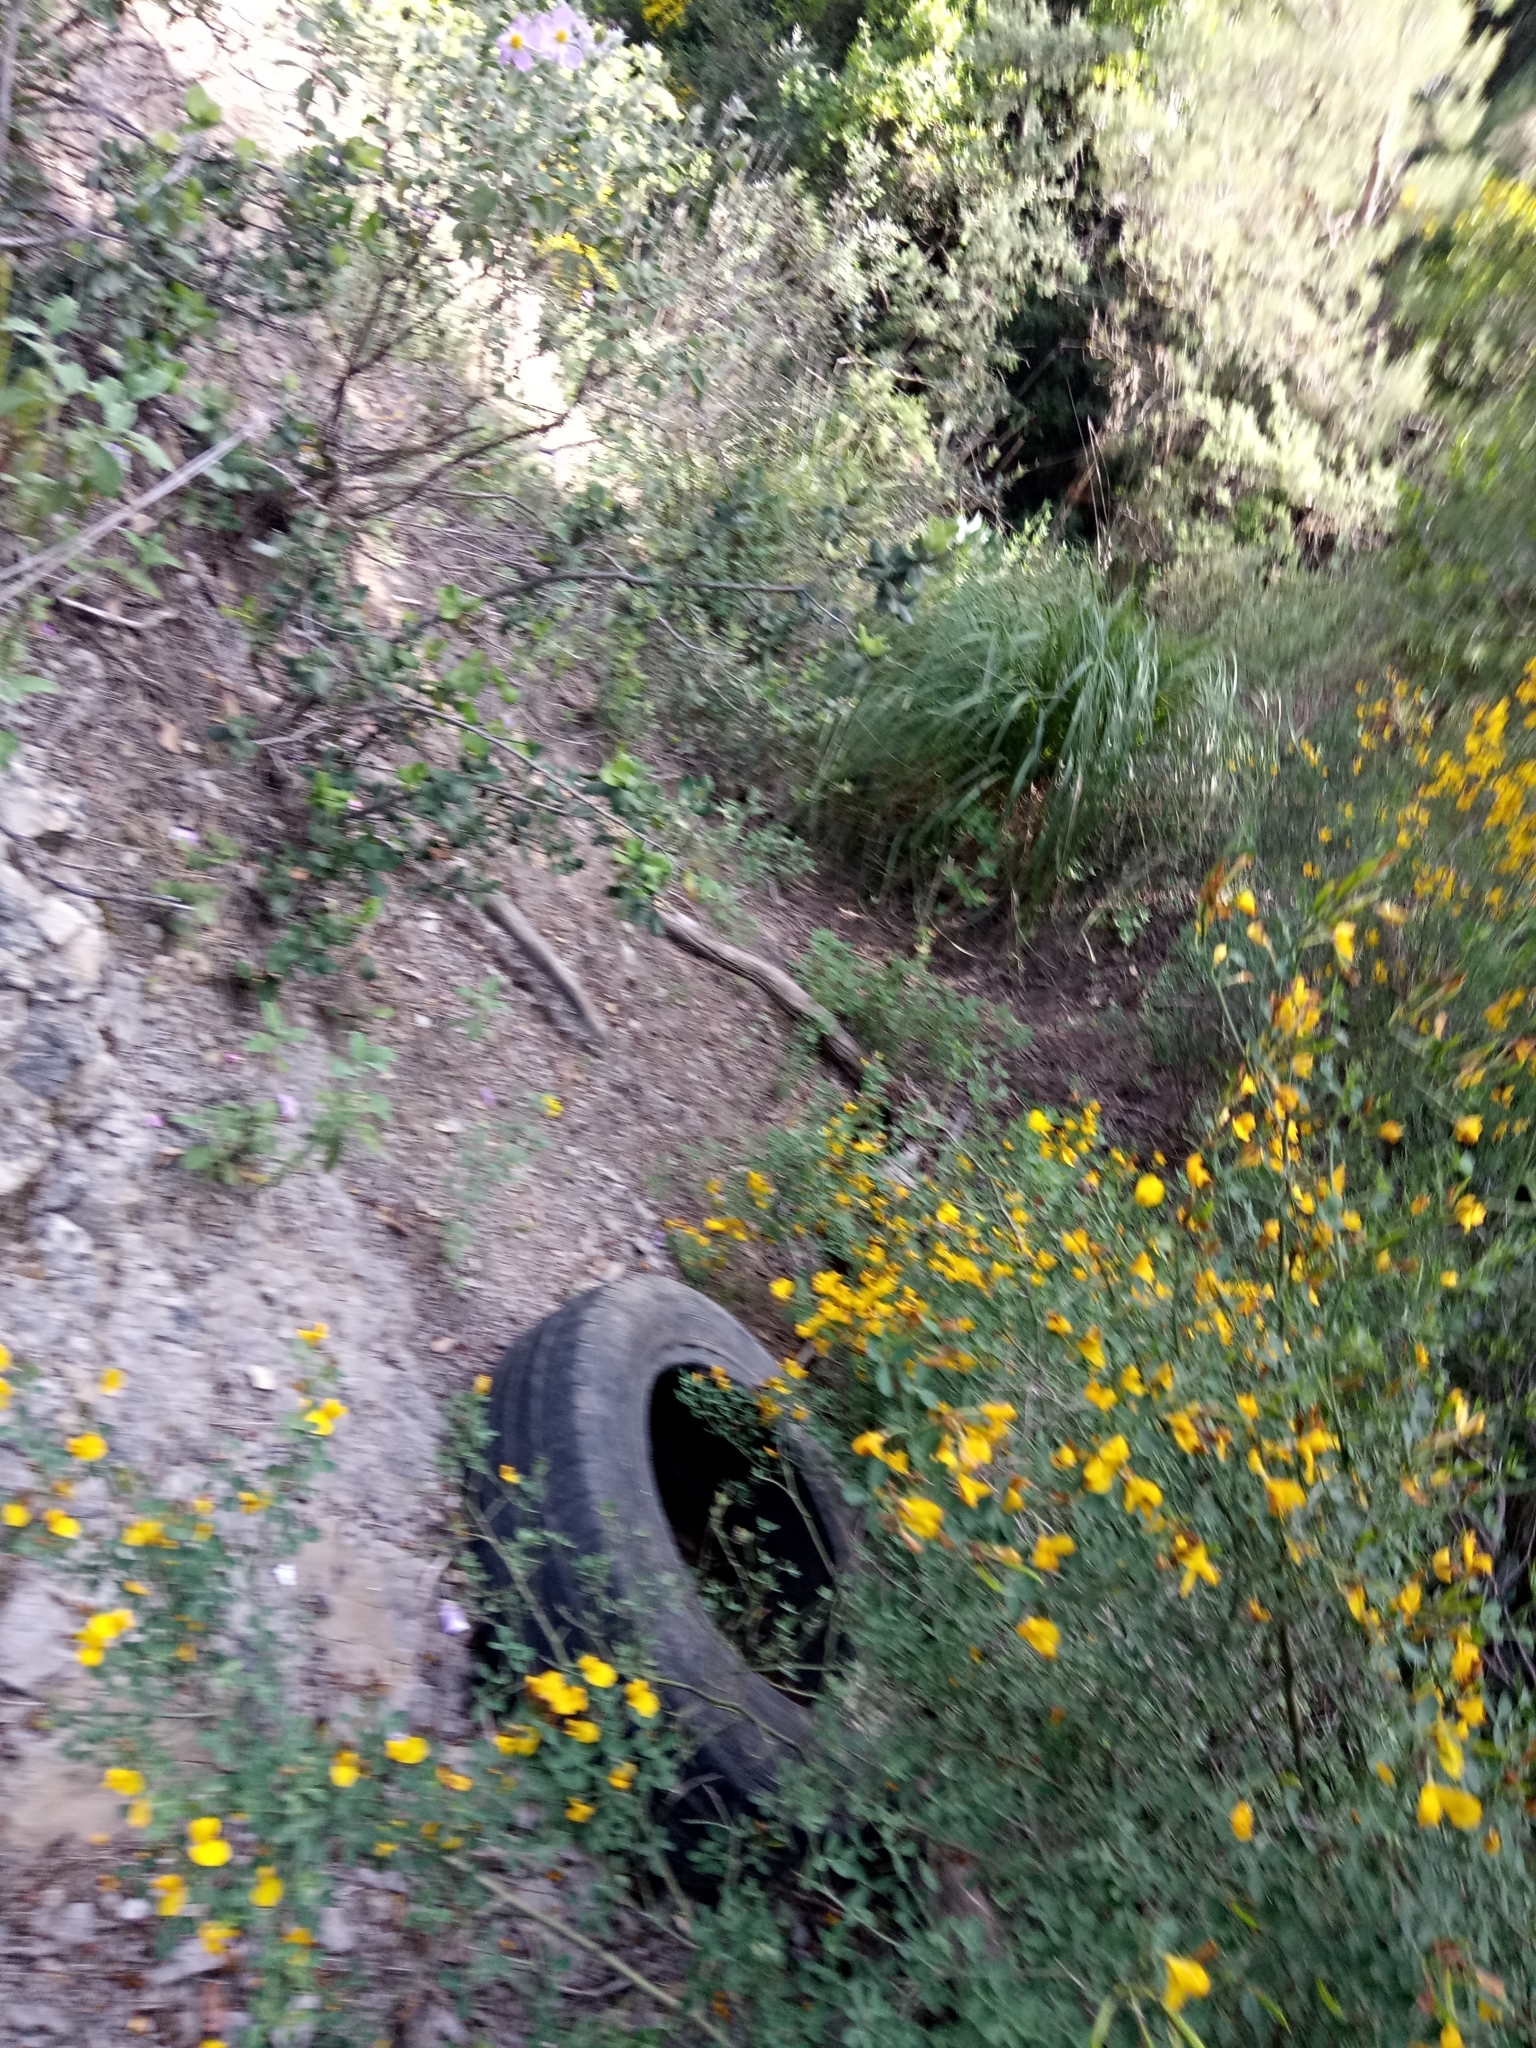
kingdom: Plantae
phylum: Tracheophyta
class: Liliopsida
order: Poales
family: Poaceae
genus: Ampelodesmos
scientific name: Ampelodesmos mauritanicus
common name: Mauritanian grass
